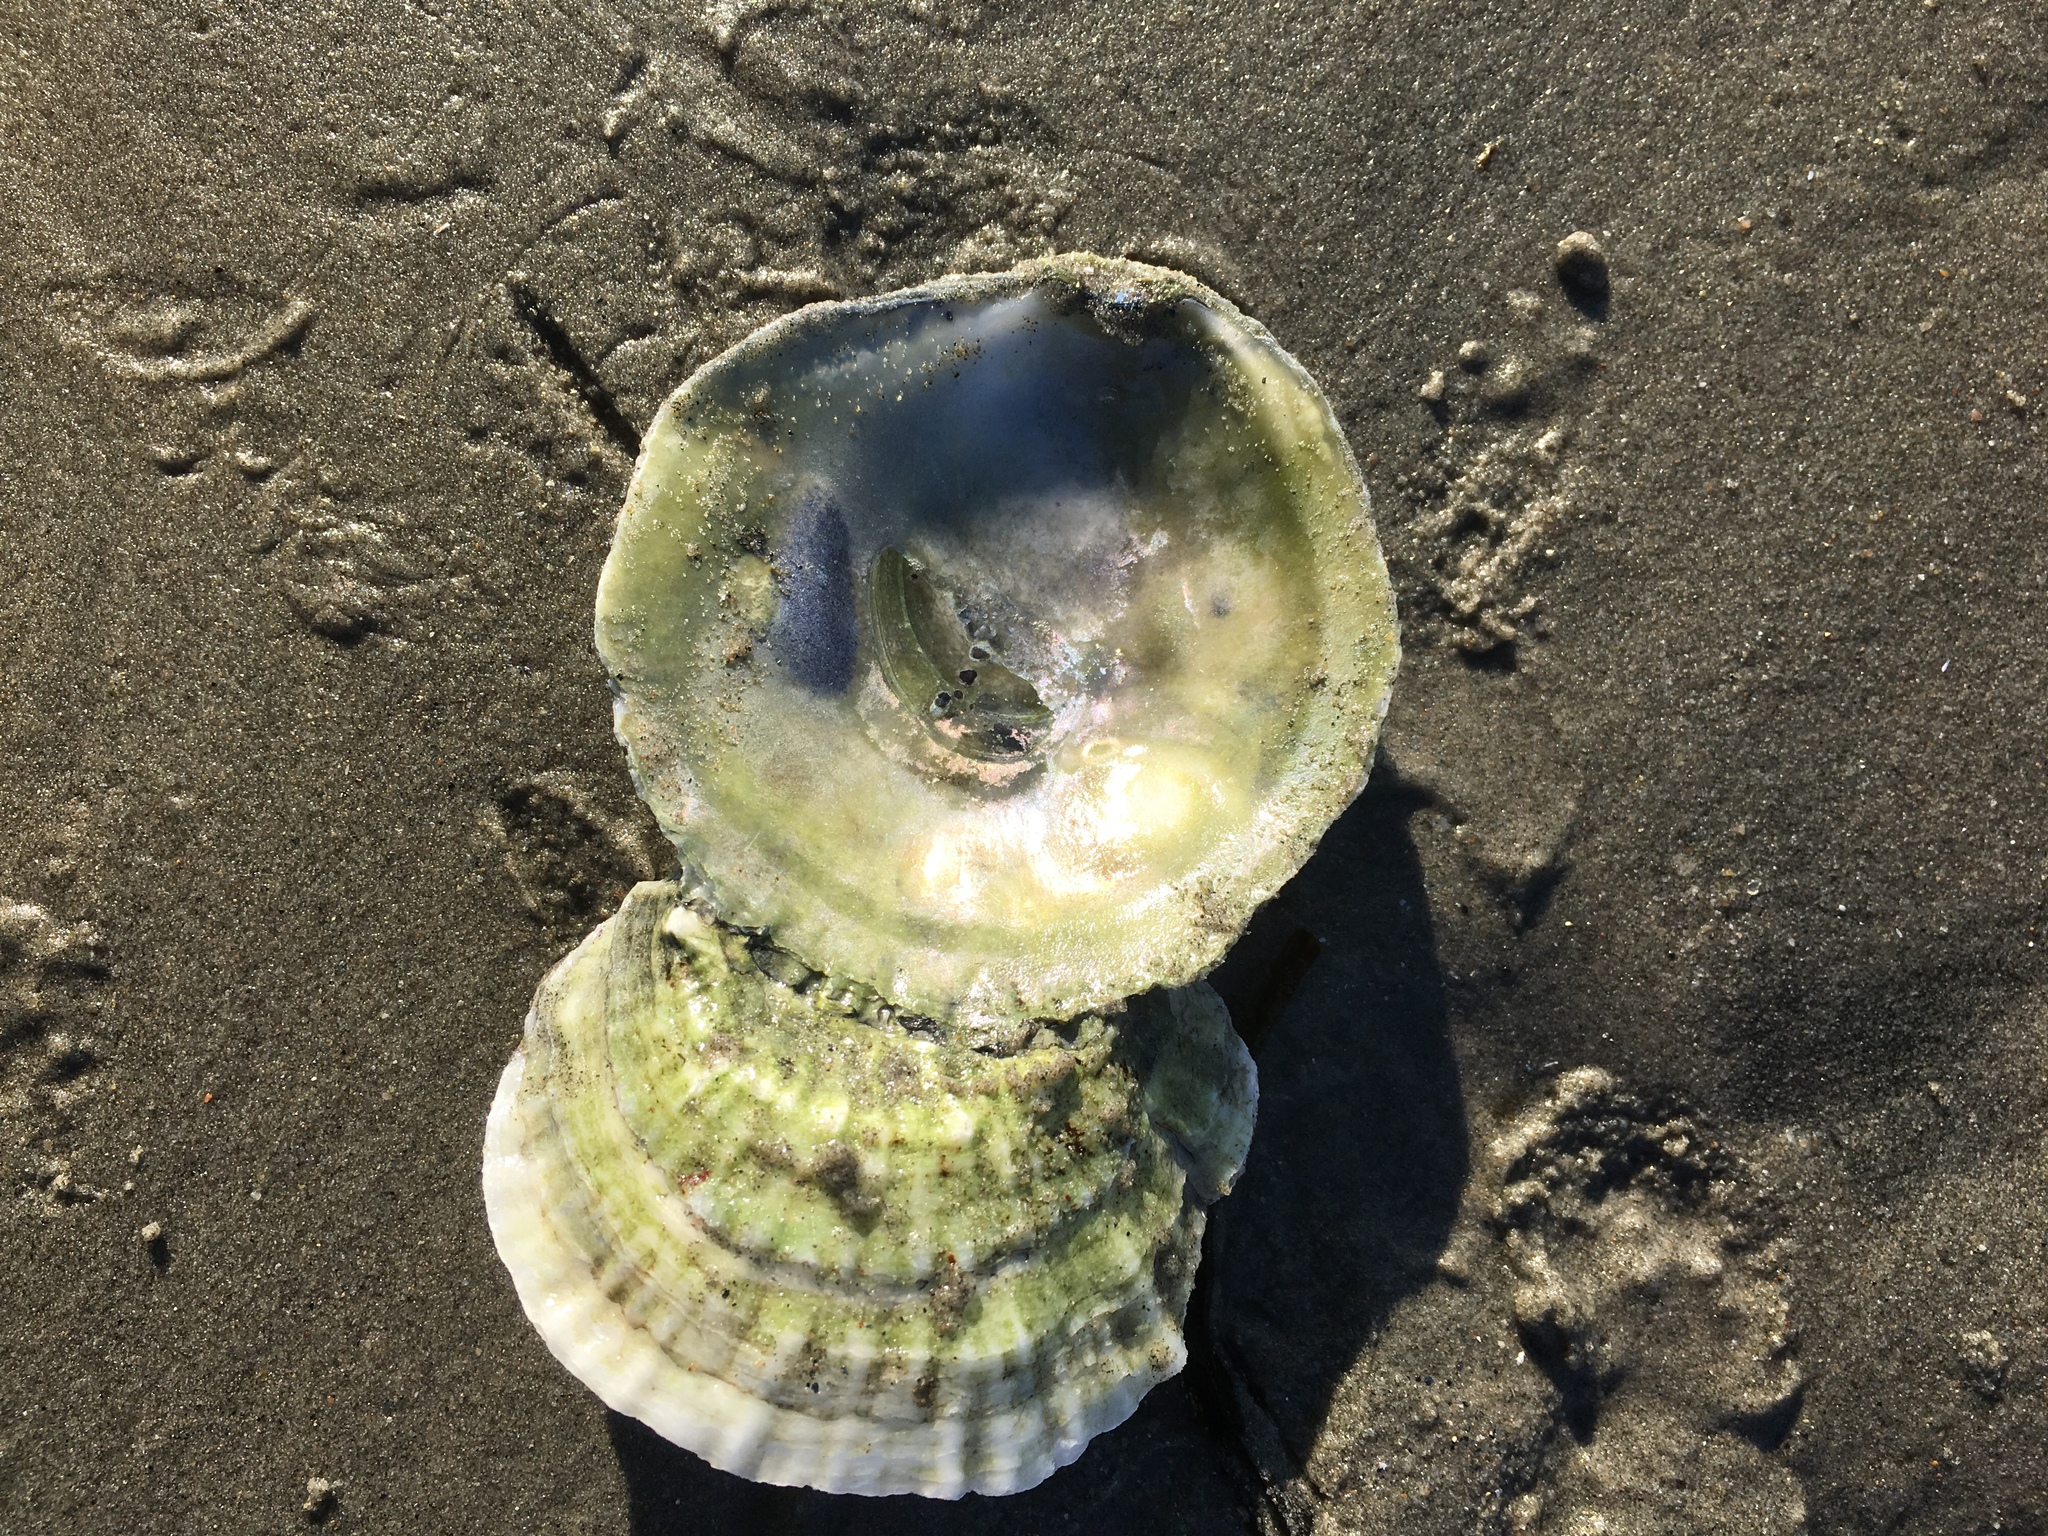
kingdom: Animalia
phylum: Mollusca
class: Bivalvia
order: Ostreida
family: Ostreidae
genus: Ostrea
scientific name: Ostrea edulis
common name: Flat oyster
